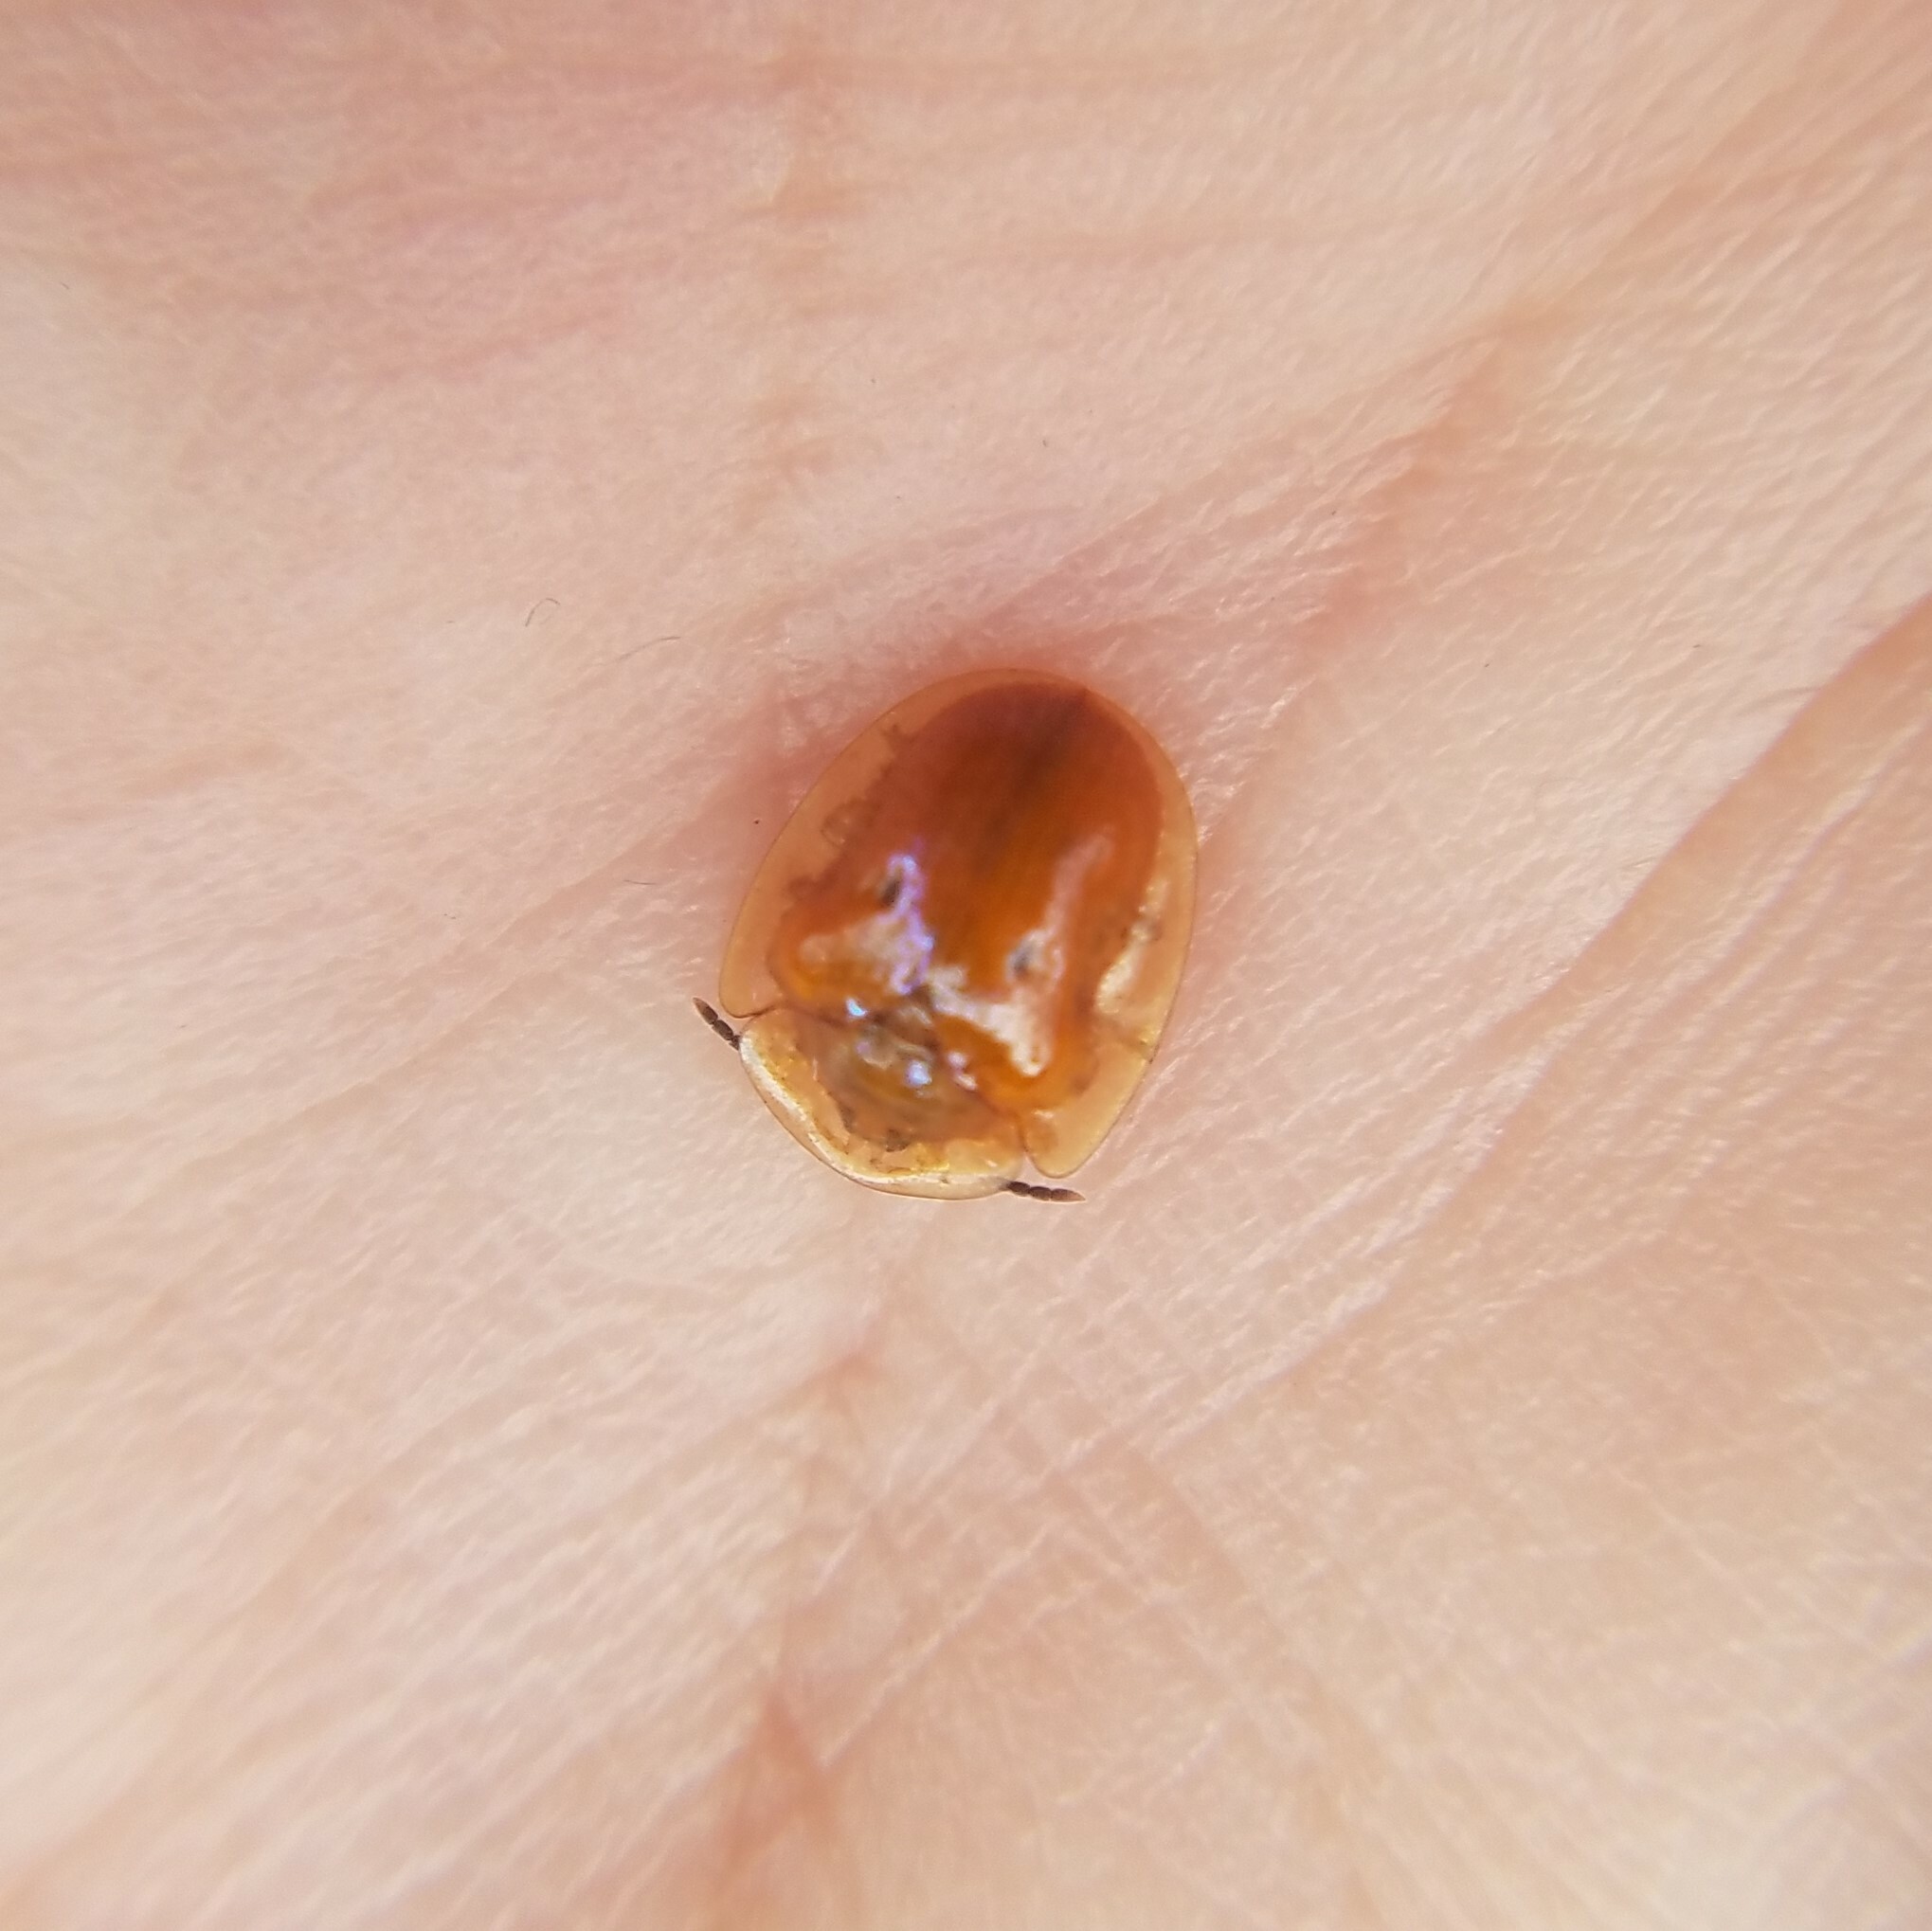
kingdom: Animalia
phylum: Arthropoda
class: Insecta
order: Coleoptera
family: Chrysomelidae
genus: Charidotella
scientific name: Charidotella sexpunctata
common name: Golden tortoise beetle
